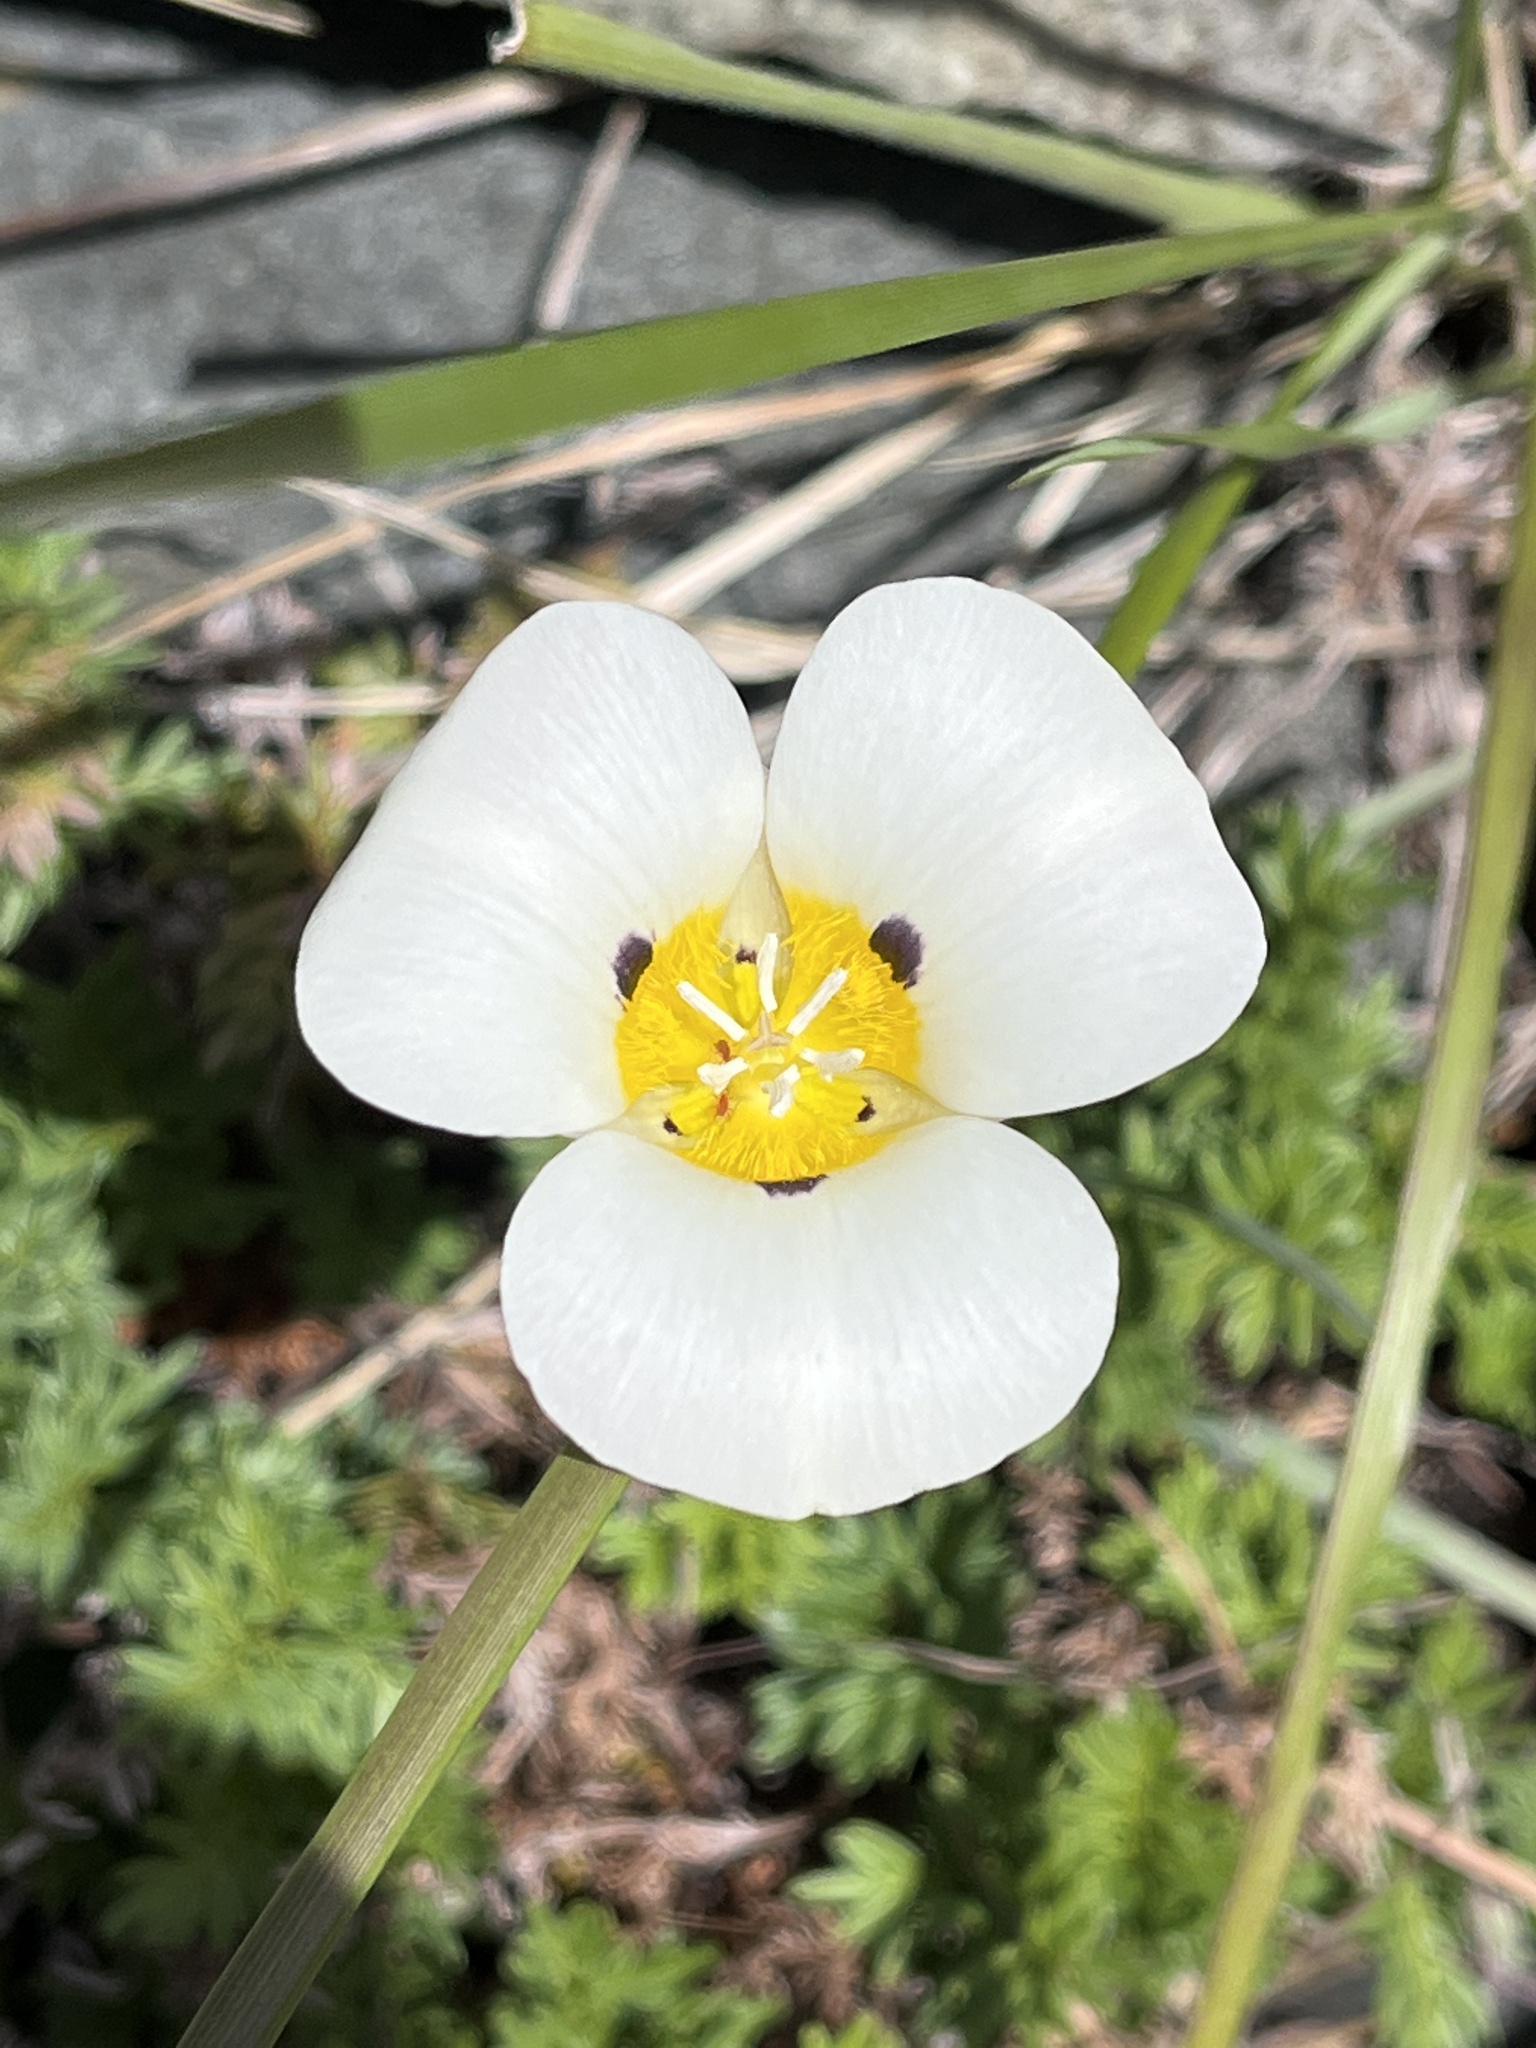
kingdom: Plantae
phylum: Tracheophyta
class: Liliopsida
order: Liliales
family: Liliaceae
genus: Calochortus
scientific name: Calochortus leichtlinii
